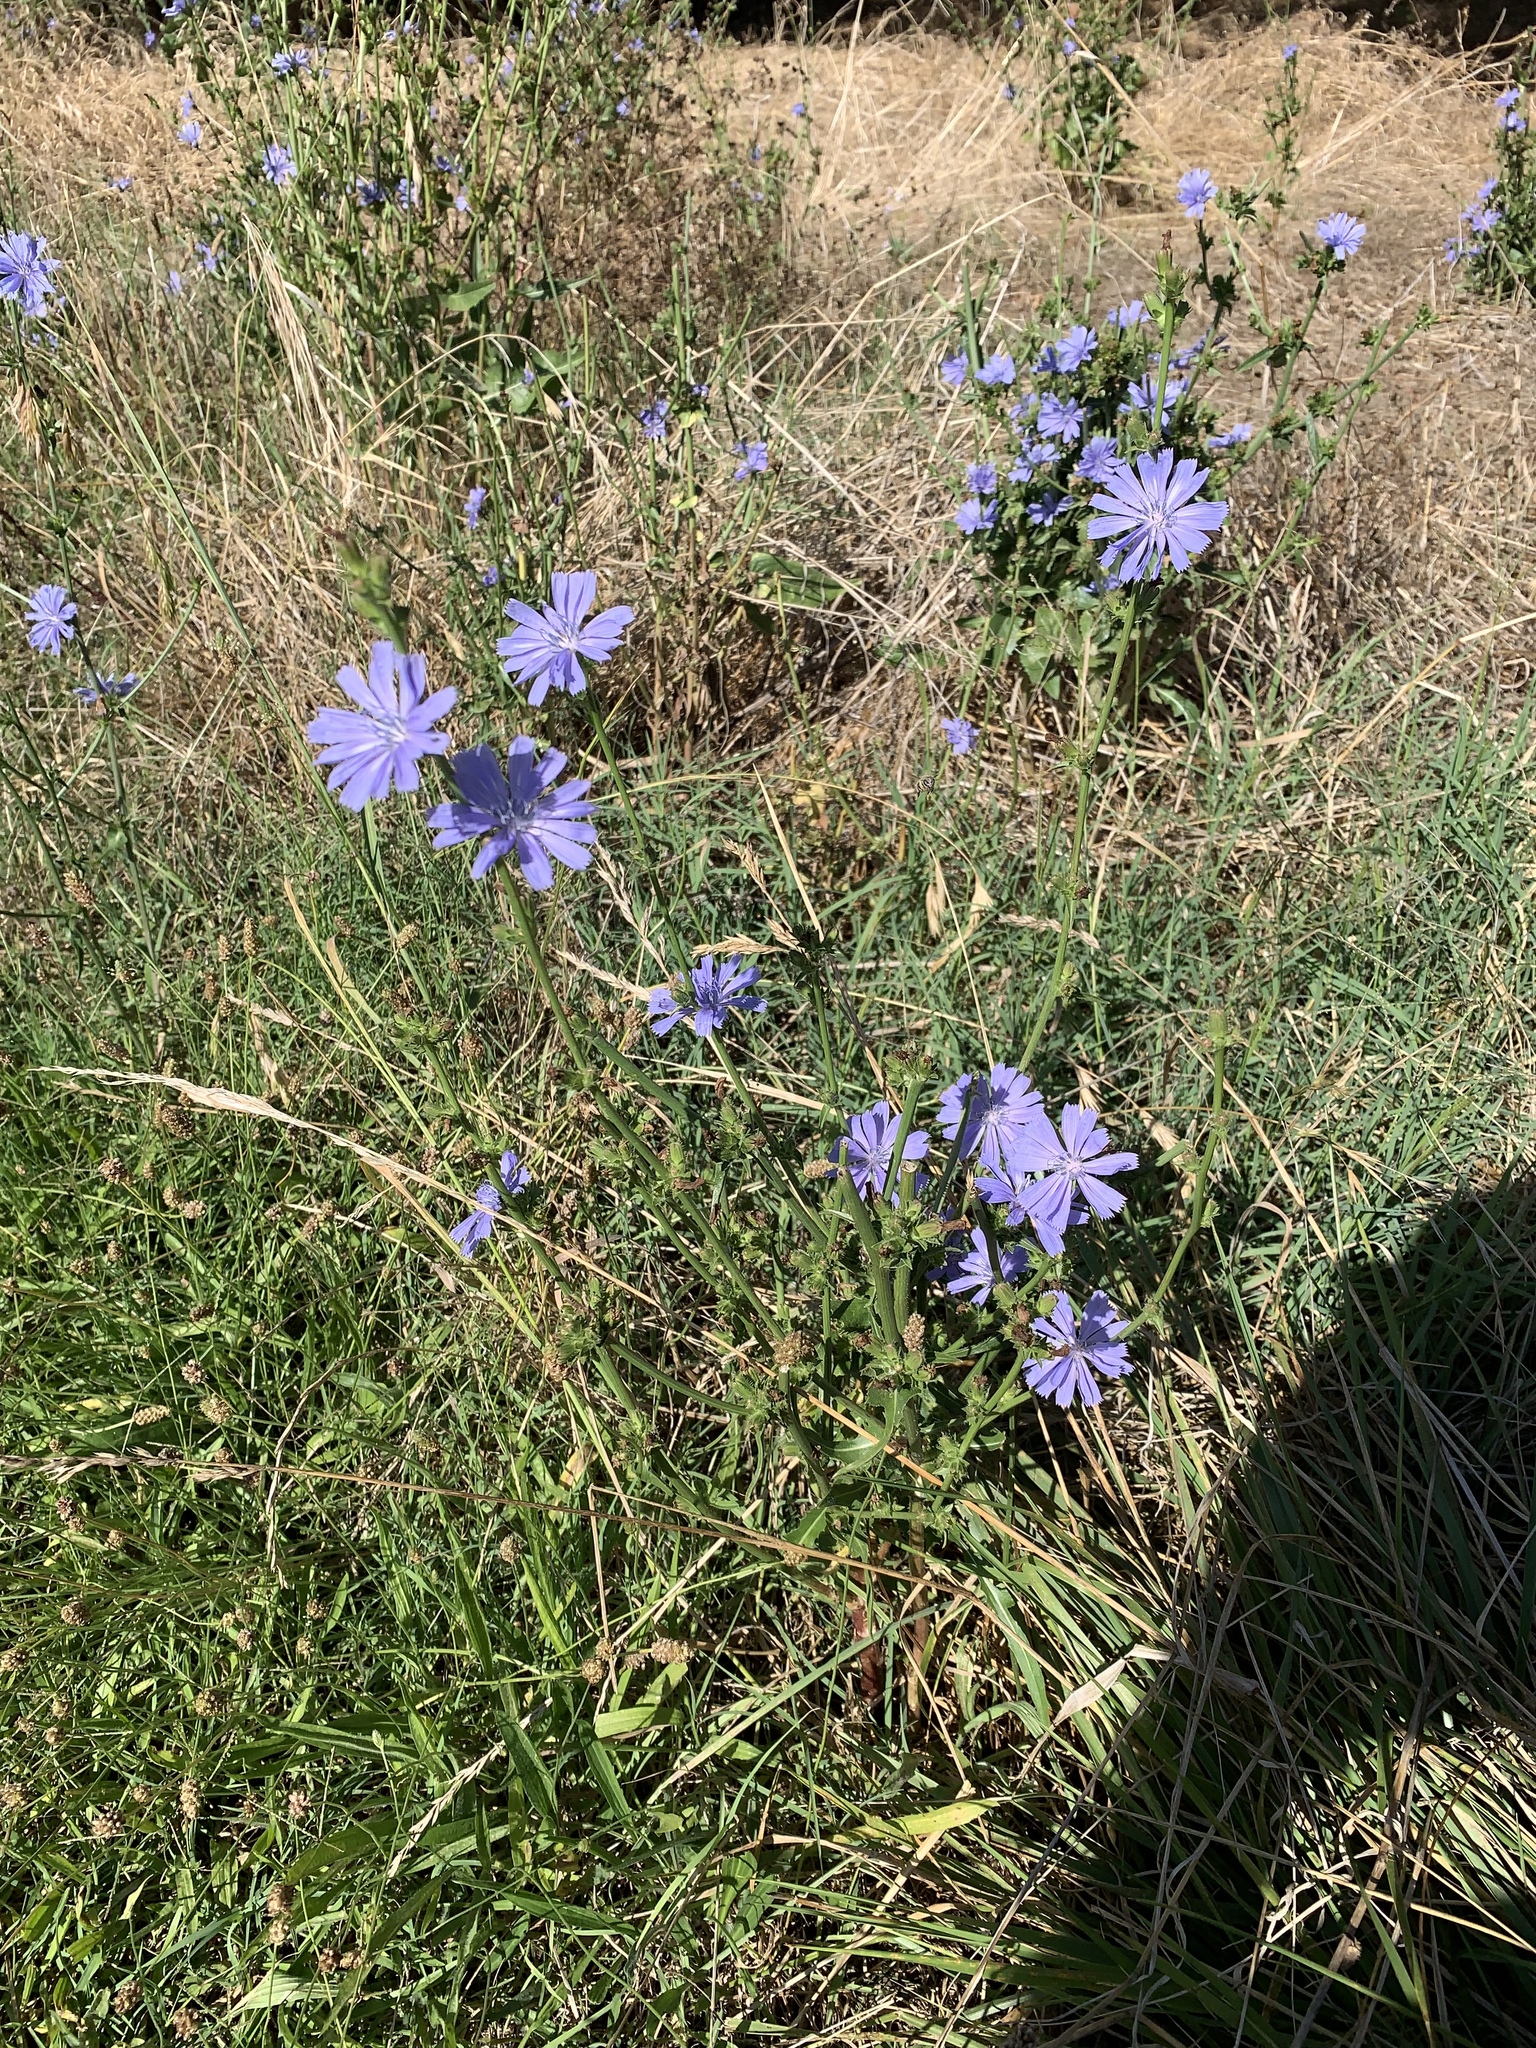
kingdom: Plantae
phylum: Tracheophyta
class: Magnoliopsida
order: Asterales
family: Asteraceae
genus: Cichorium
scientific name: Cichorium intybus
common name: Chicory
